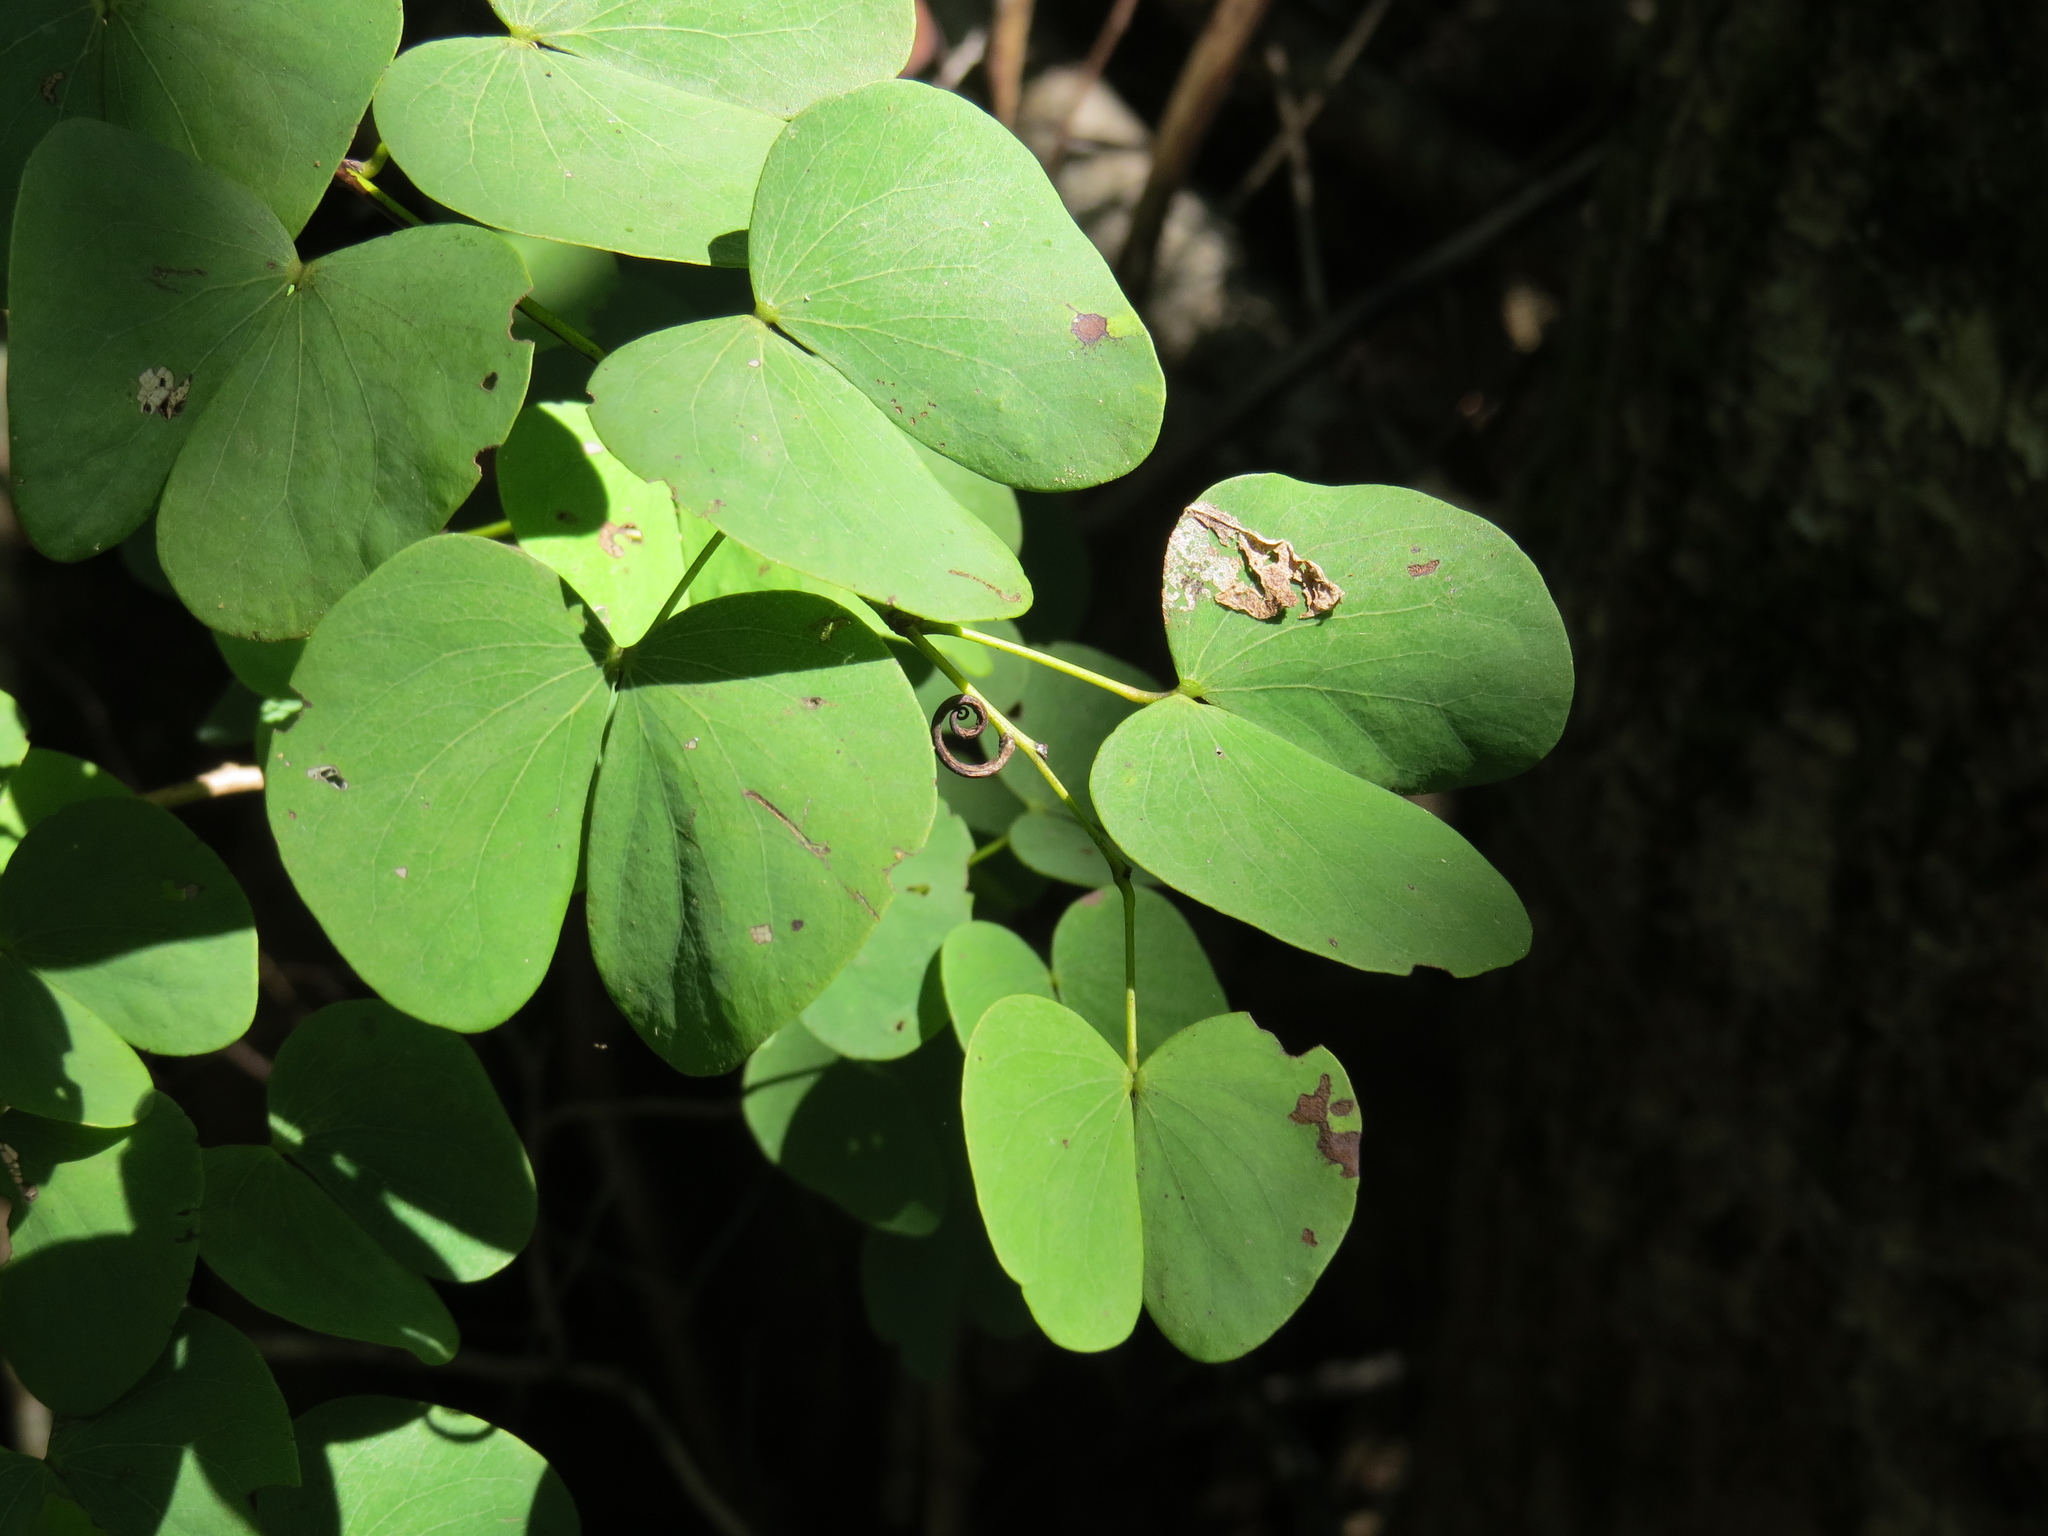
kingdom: Plantae
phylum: Tracheophyta
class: Magnoliopsida
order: Fabales
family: Fabaceae
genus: Lysiphyllum
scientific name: Lysiphyllum binatum
